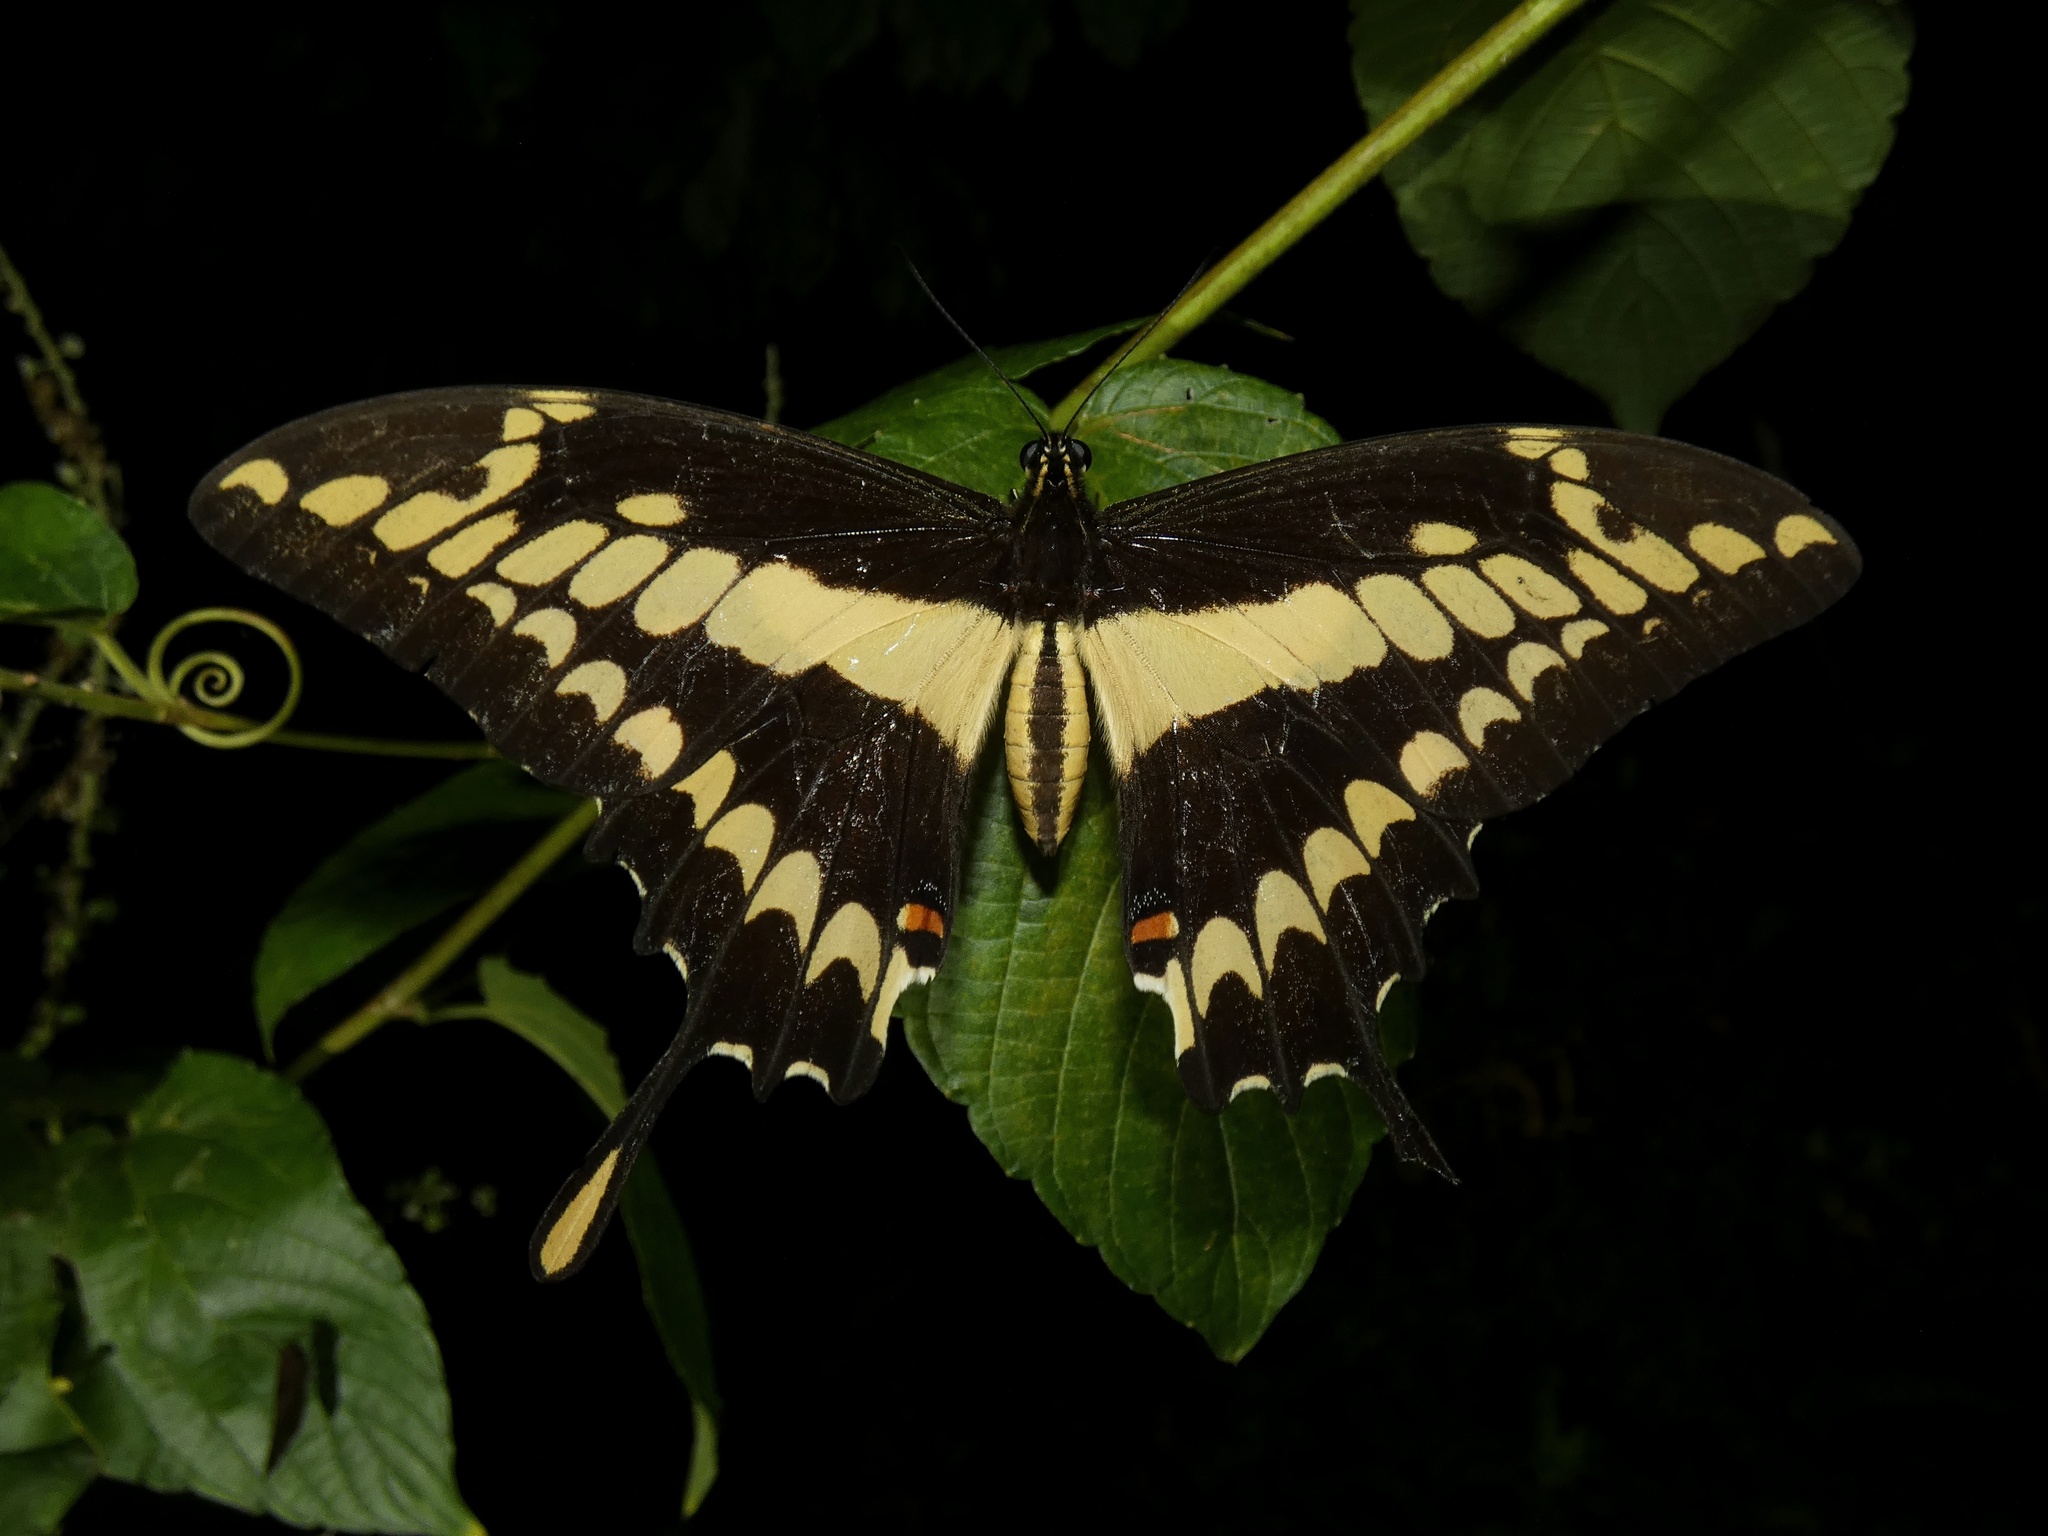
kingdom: Animalia
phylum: Arthropoda
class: Insecta
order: Lepidoptera
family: Papilionidae
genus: Papilio
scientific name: Papilio thoas
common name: King swallowtail
